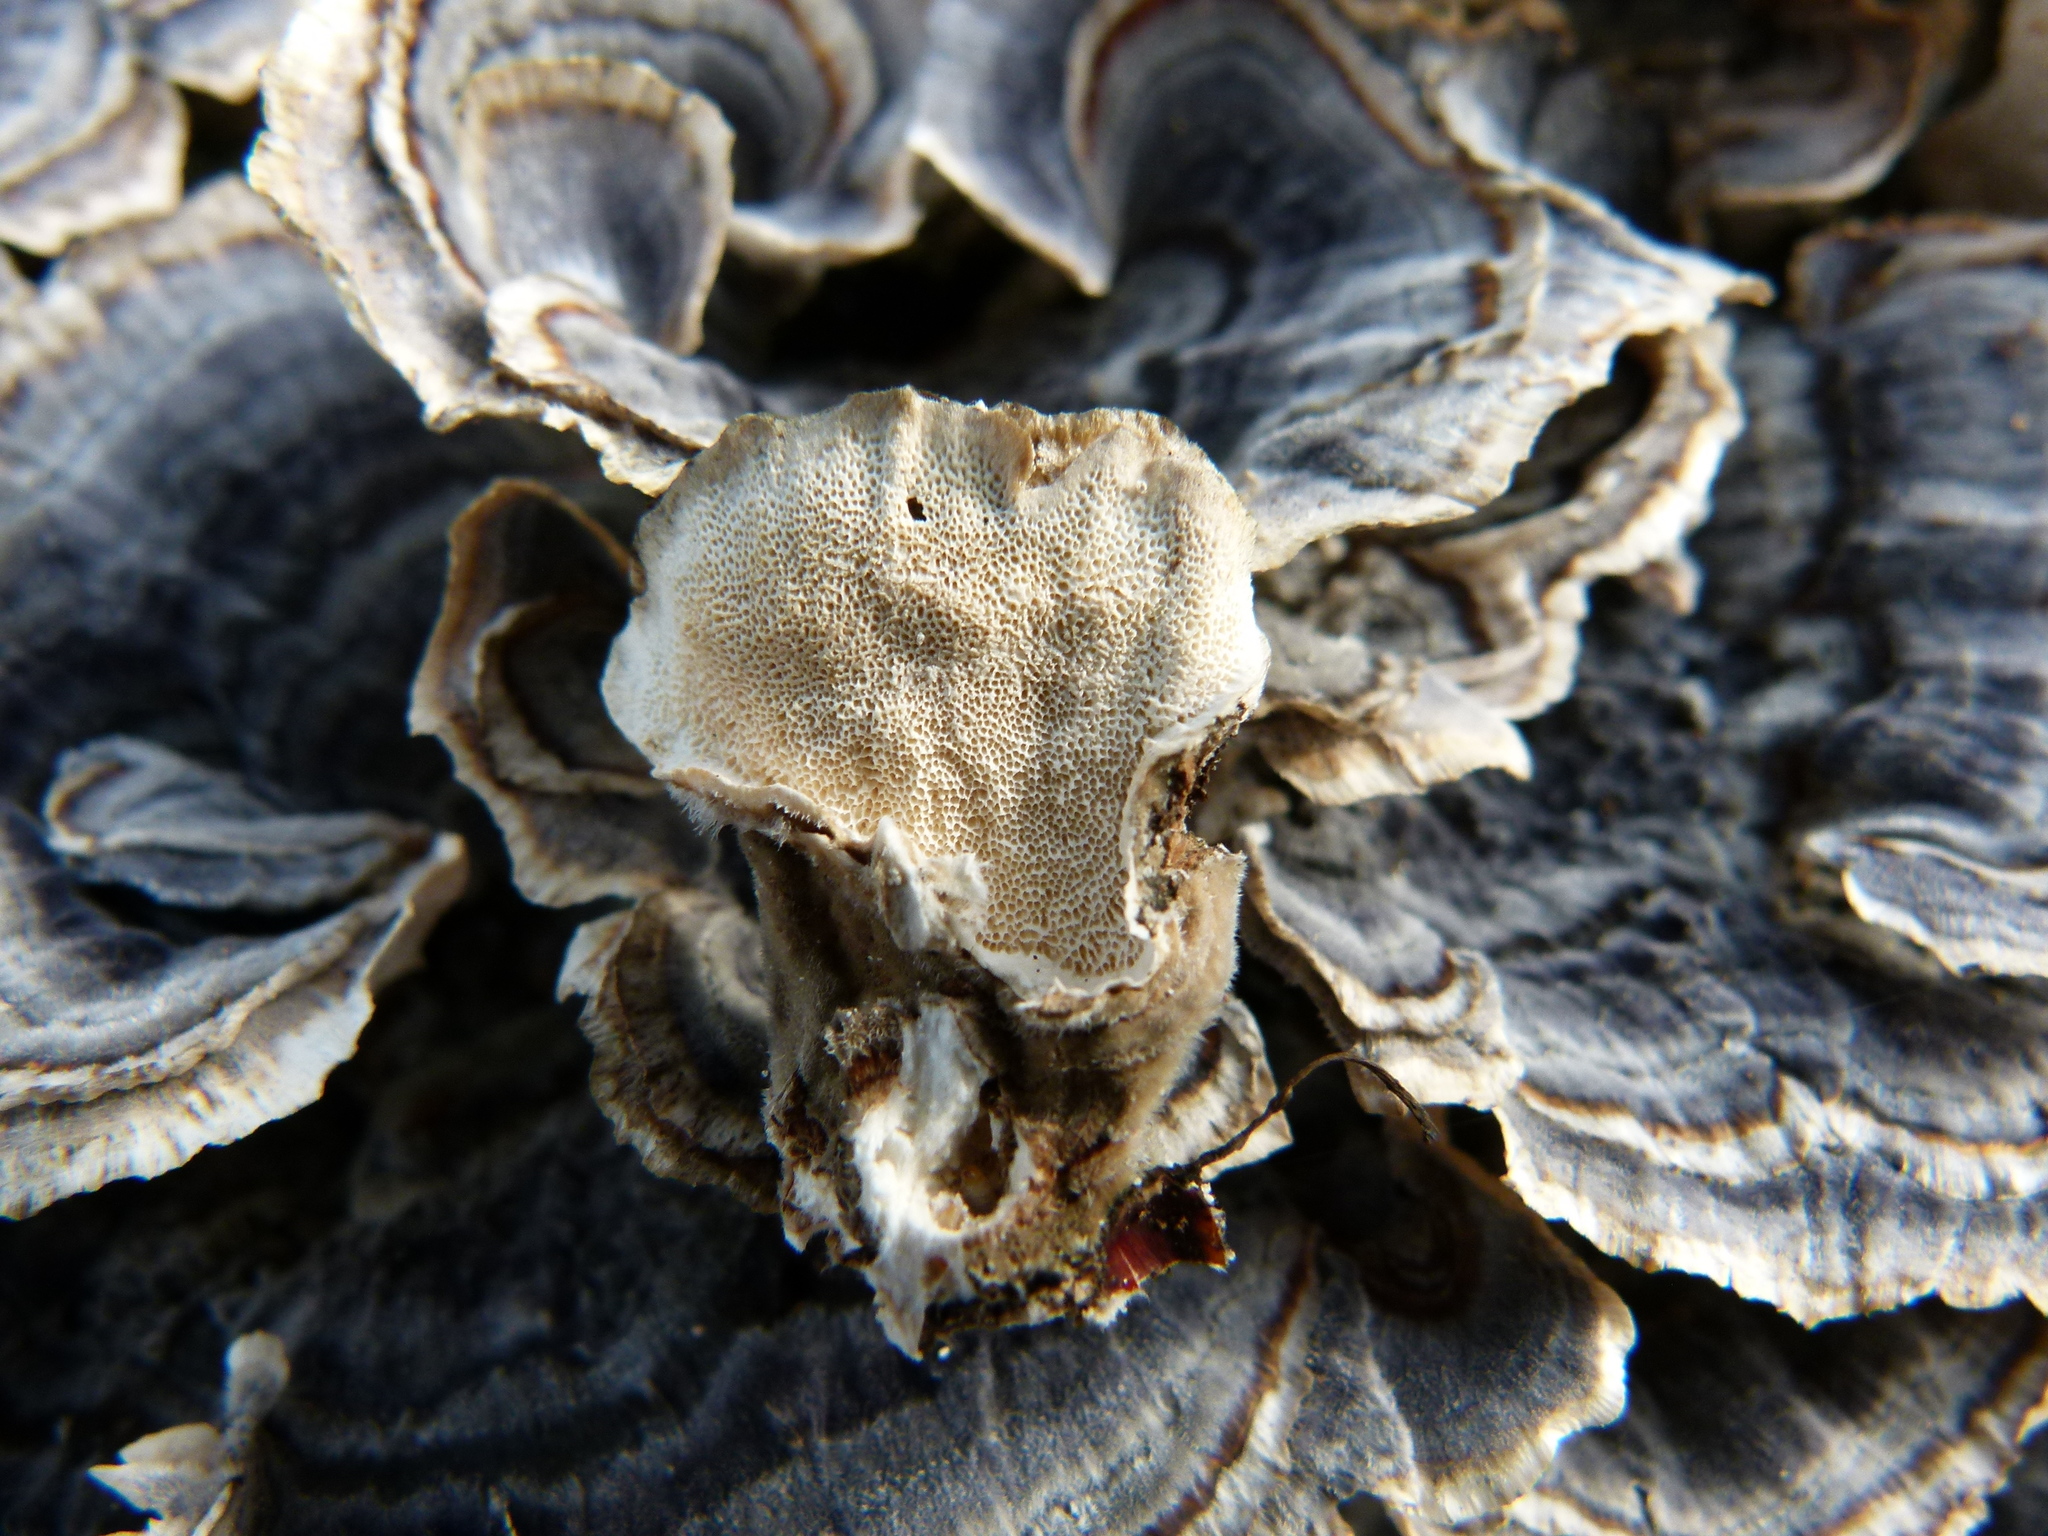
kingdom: Fungi
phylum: Basidiomycota
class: Agaricomycetes
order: Polyporales
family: Polyporaceae
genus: Trametes
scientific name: Trametes versicolor
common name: Turkeytail
